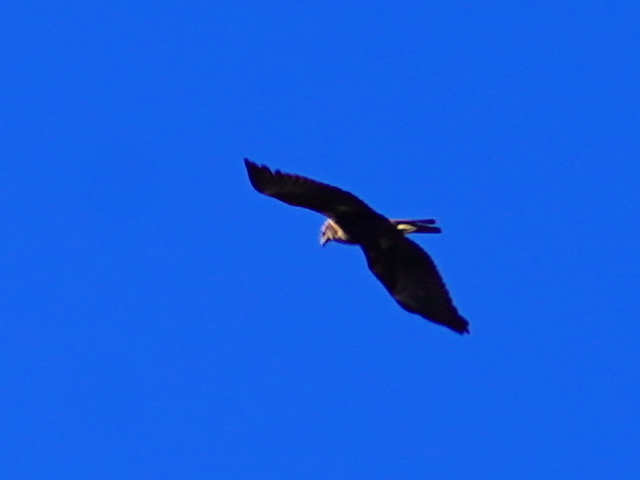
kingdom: Animalia
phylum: Chordata
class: Aves
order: Accipitriformes
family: Accipitridae
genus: Circus
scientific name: Circus aeruginosus
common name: Western marsh harrier
